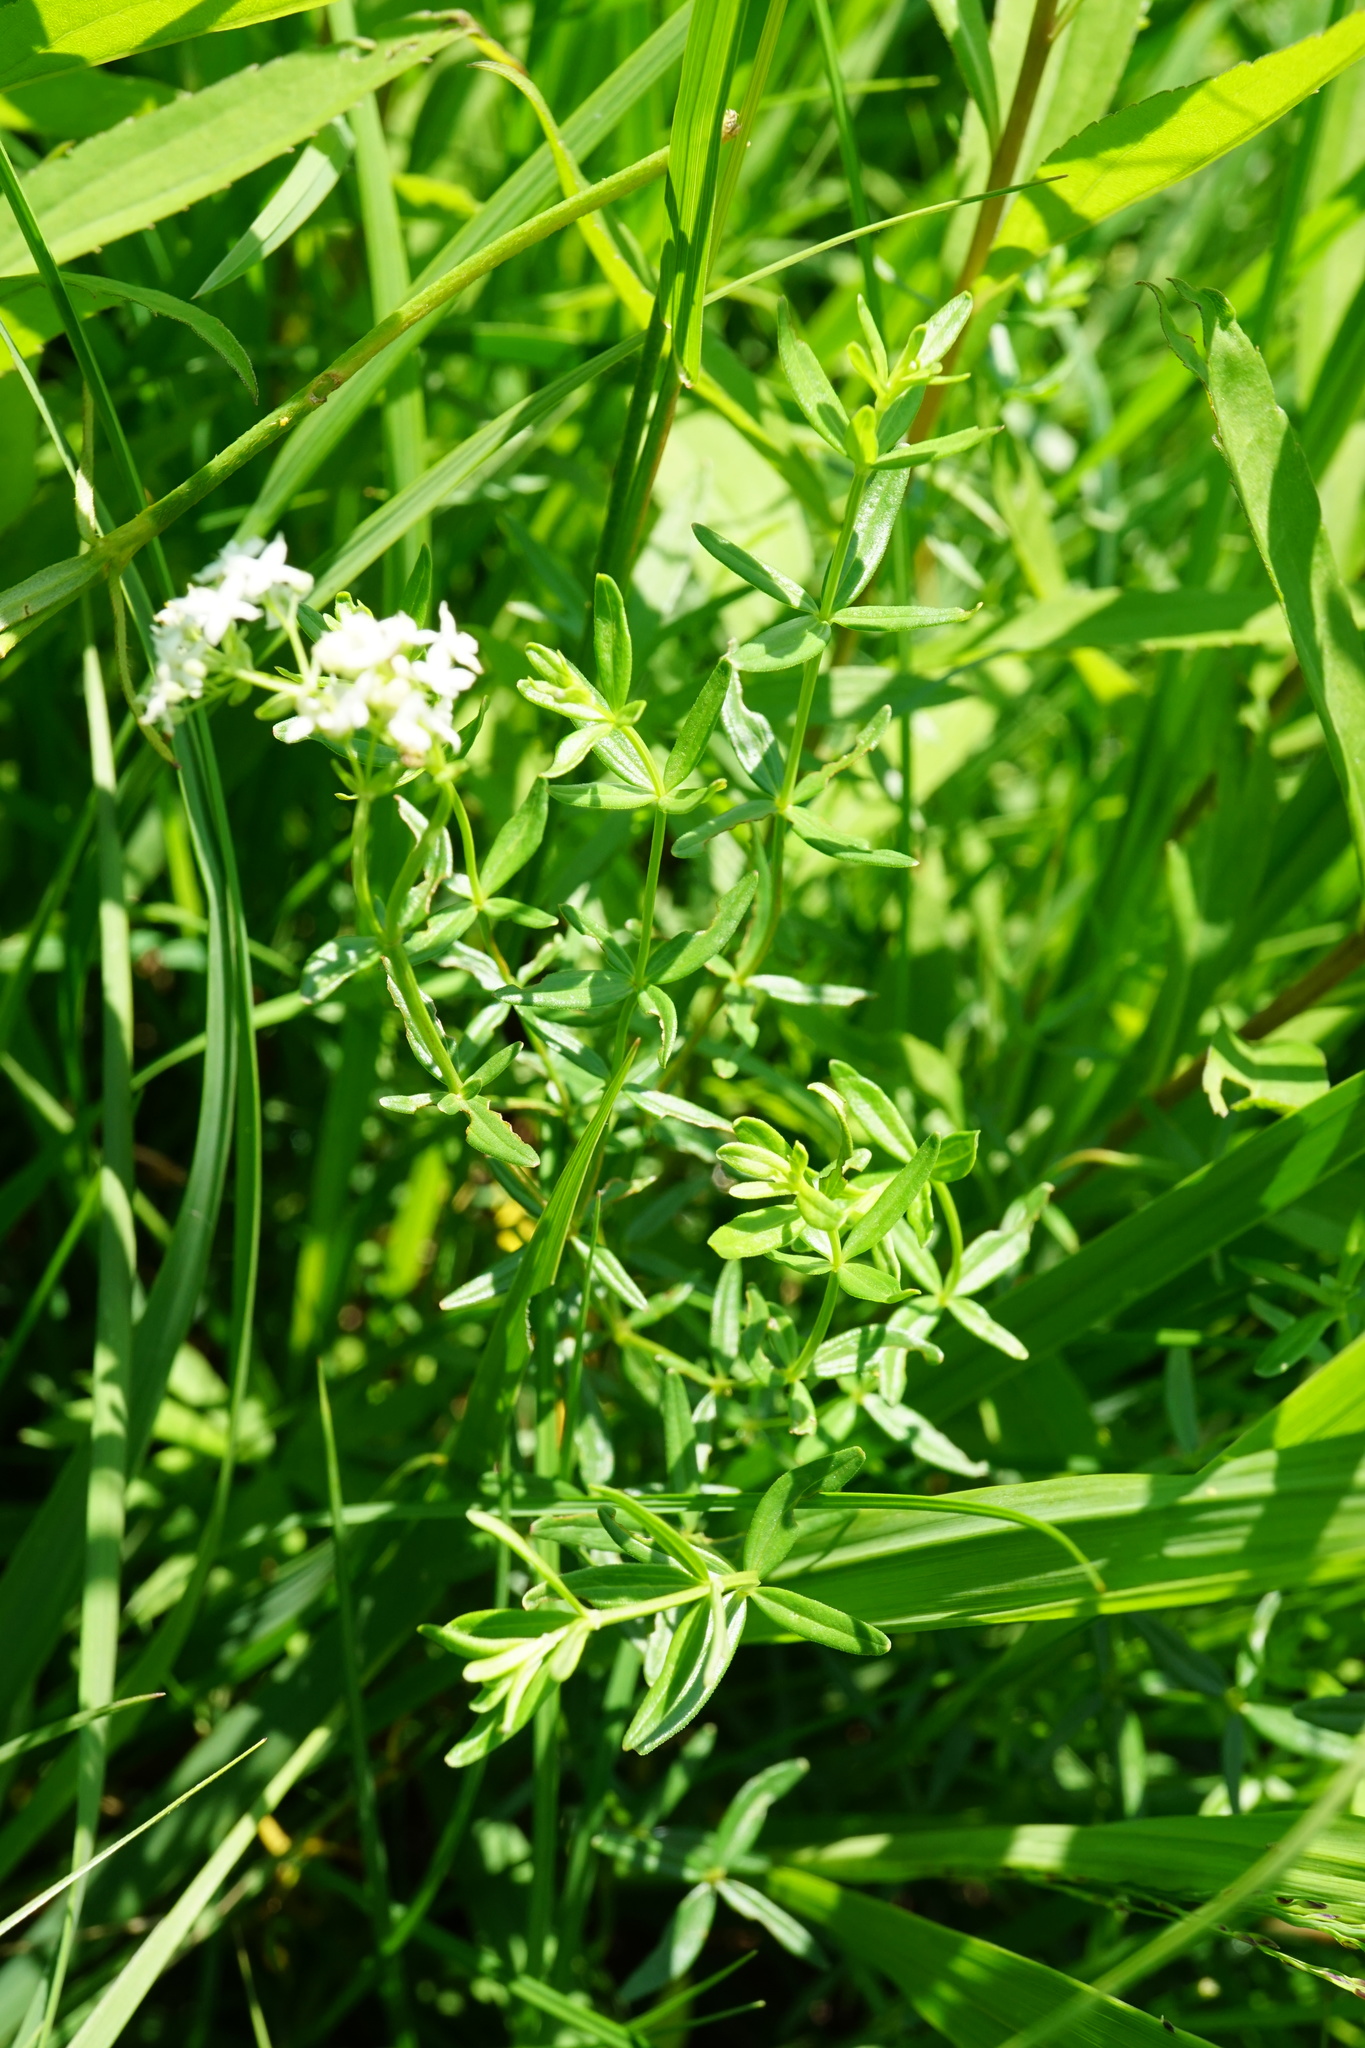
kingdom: Plantae
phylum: Tracheophyta
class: Magnoliopsida
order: Gentianales
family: Rubiaceae
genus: Galium
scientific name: Galium boreale
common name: Northern bedstraw
